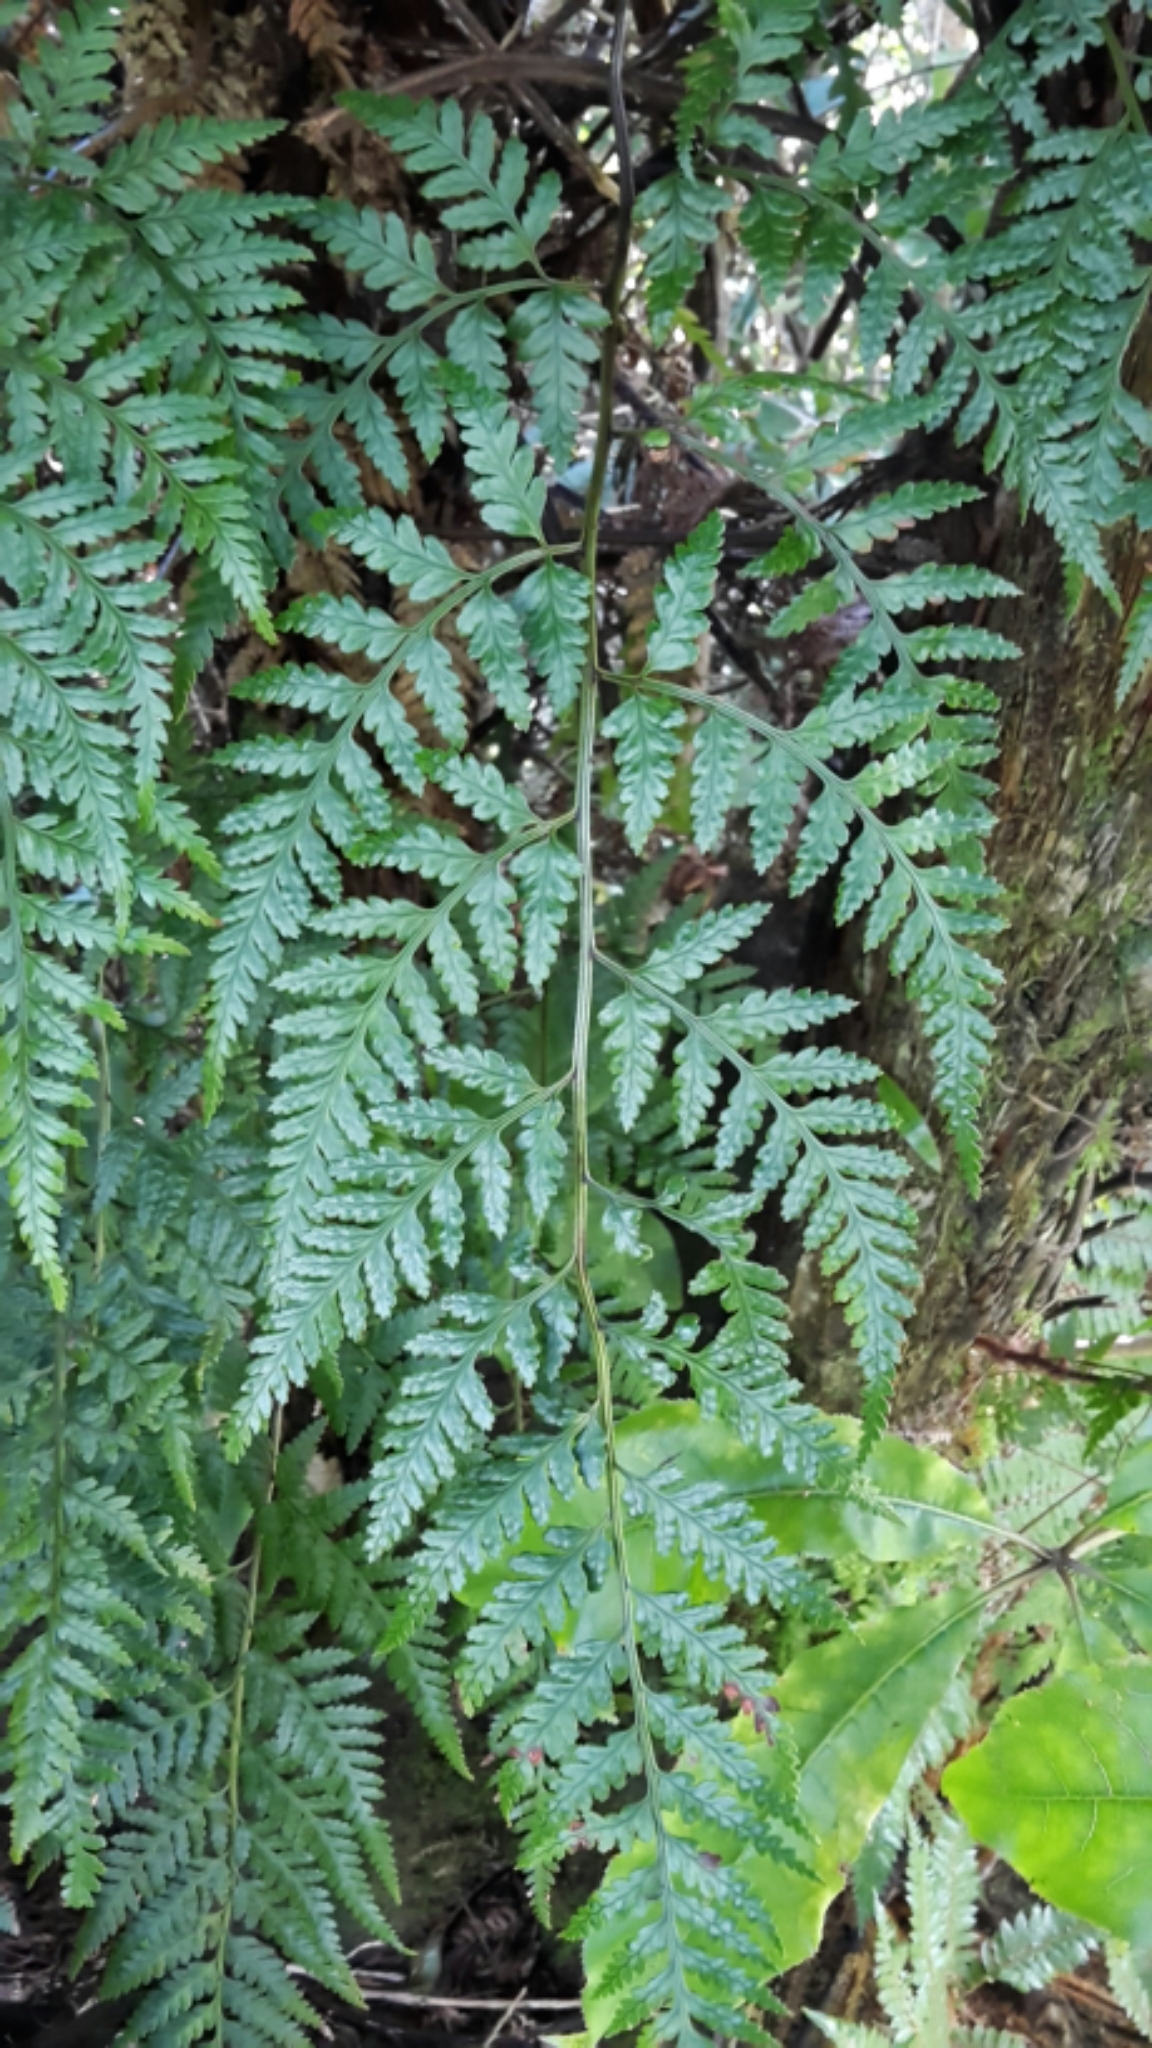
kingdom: Plantae
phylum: Tracheophyta
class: Polypodiopsida
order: Polypodiales
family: Dryopteridaceae
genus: Rumohra
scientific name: Rumohra adiantiformis
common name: Leather fern
